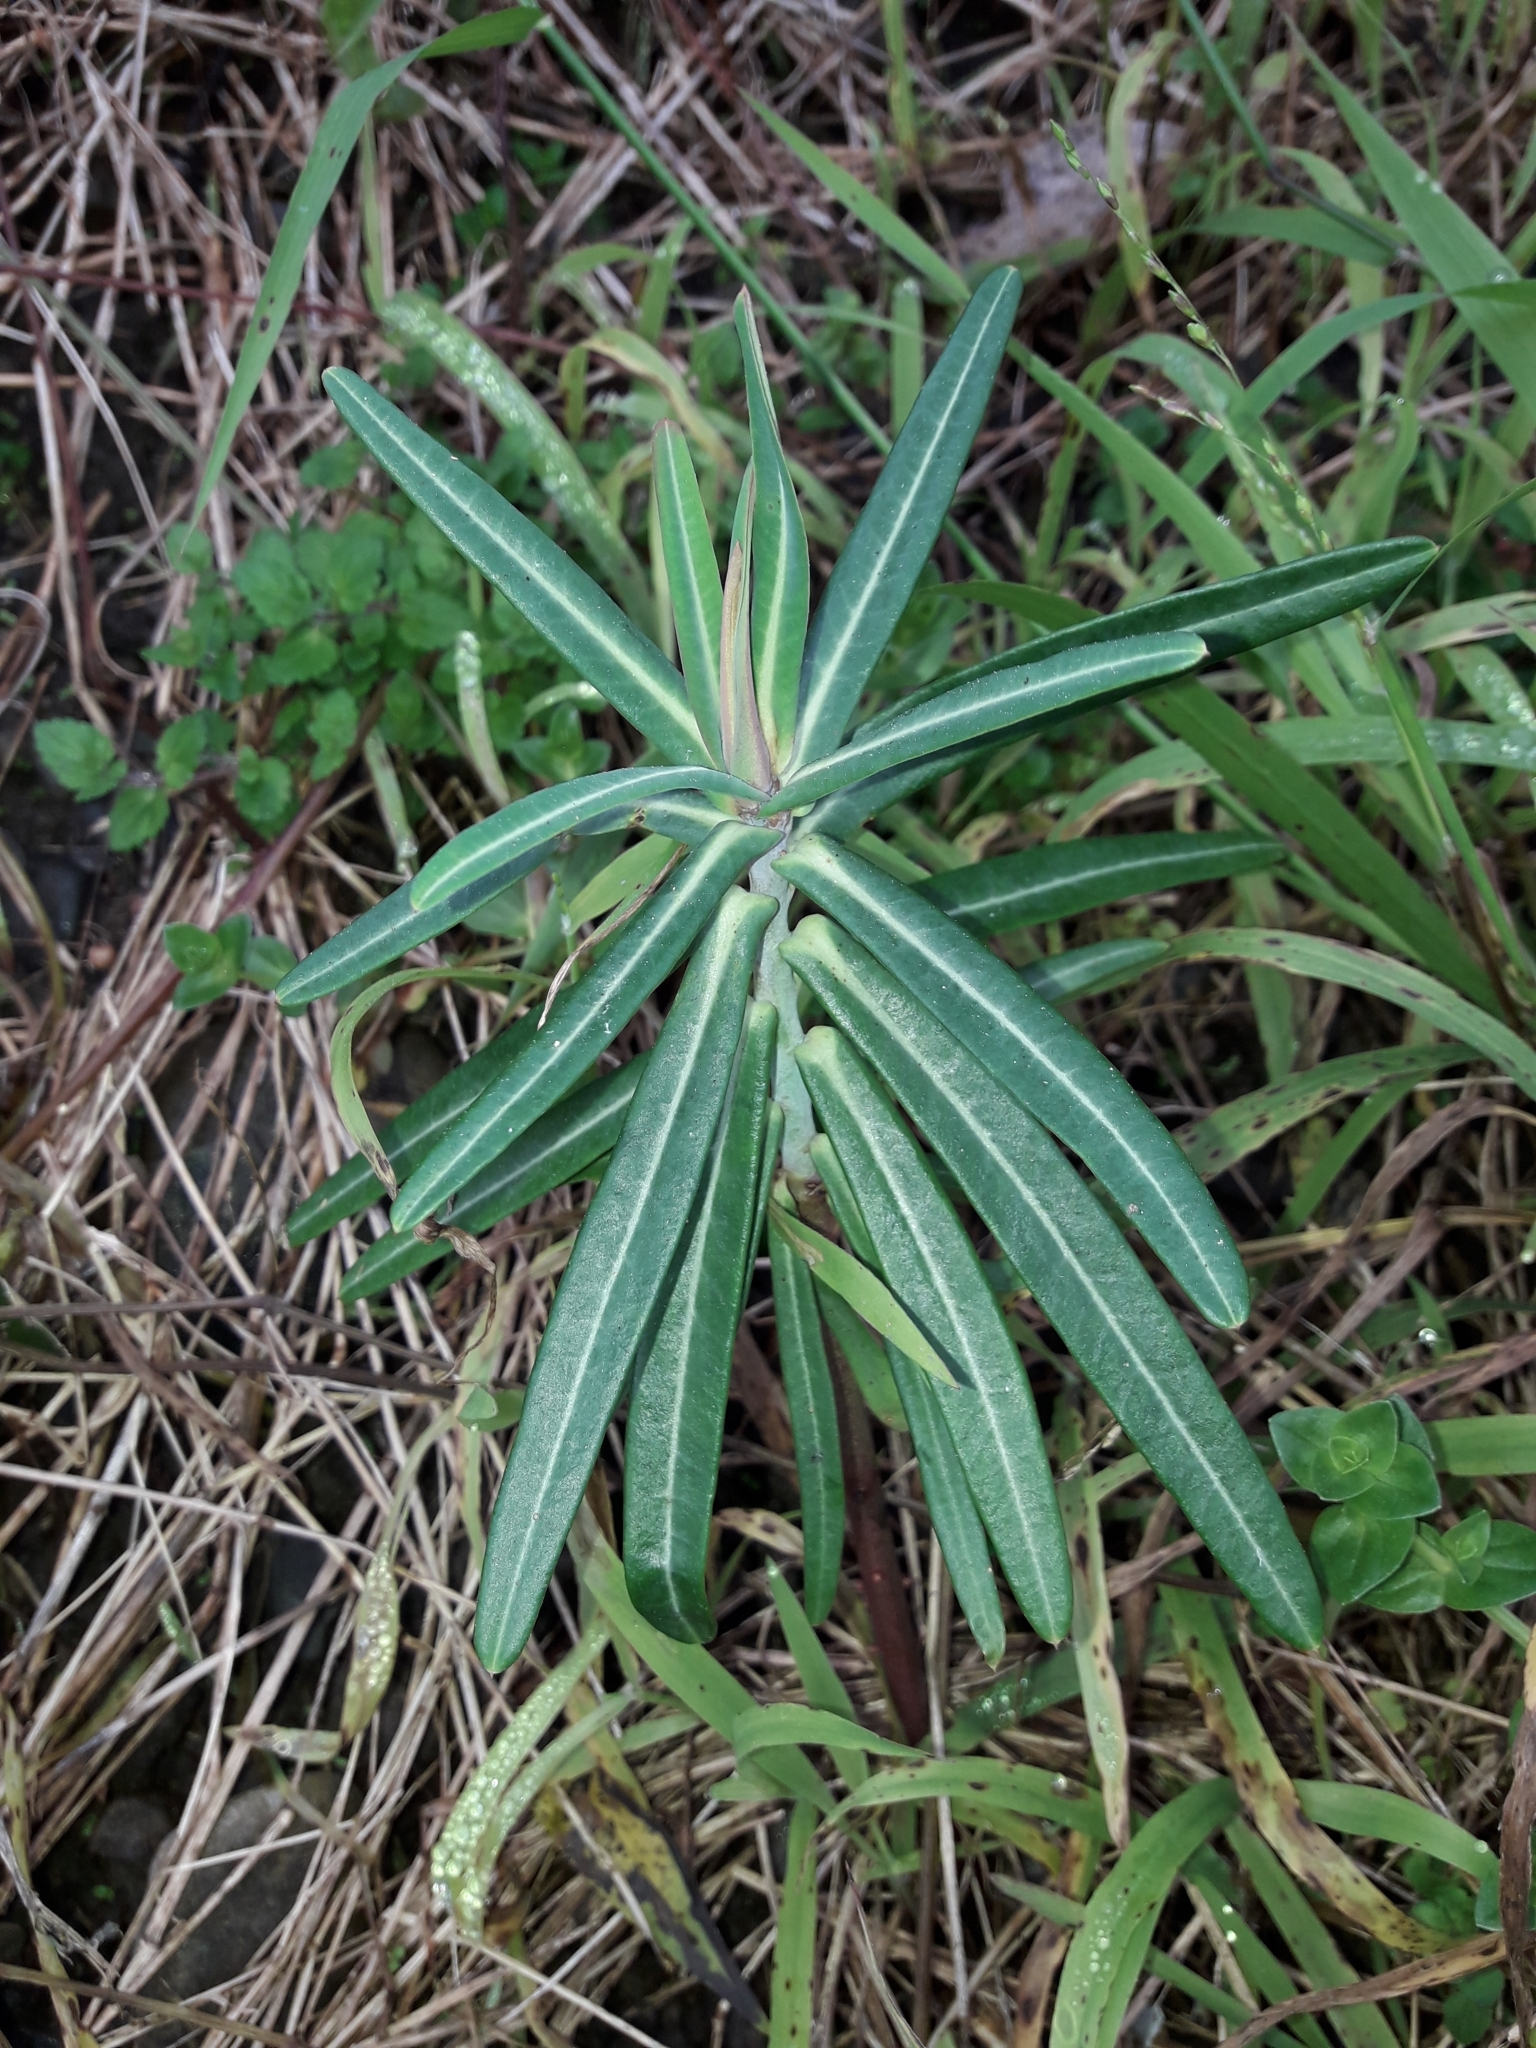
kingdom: Plantae
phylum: Tracheophyta
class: Magnoliopsida
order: Malpighiales
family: Euphorbiaceae
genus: Euphorbia
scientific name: Euphorbia lathyris
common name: Caper spurge
